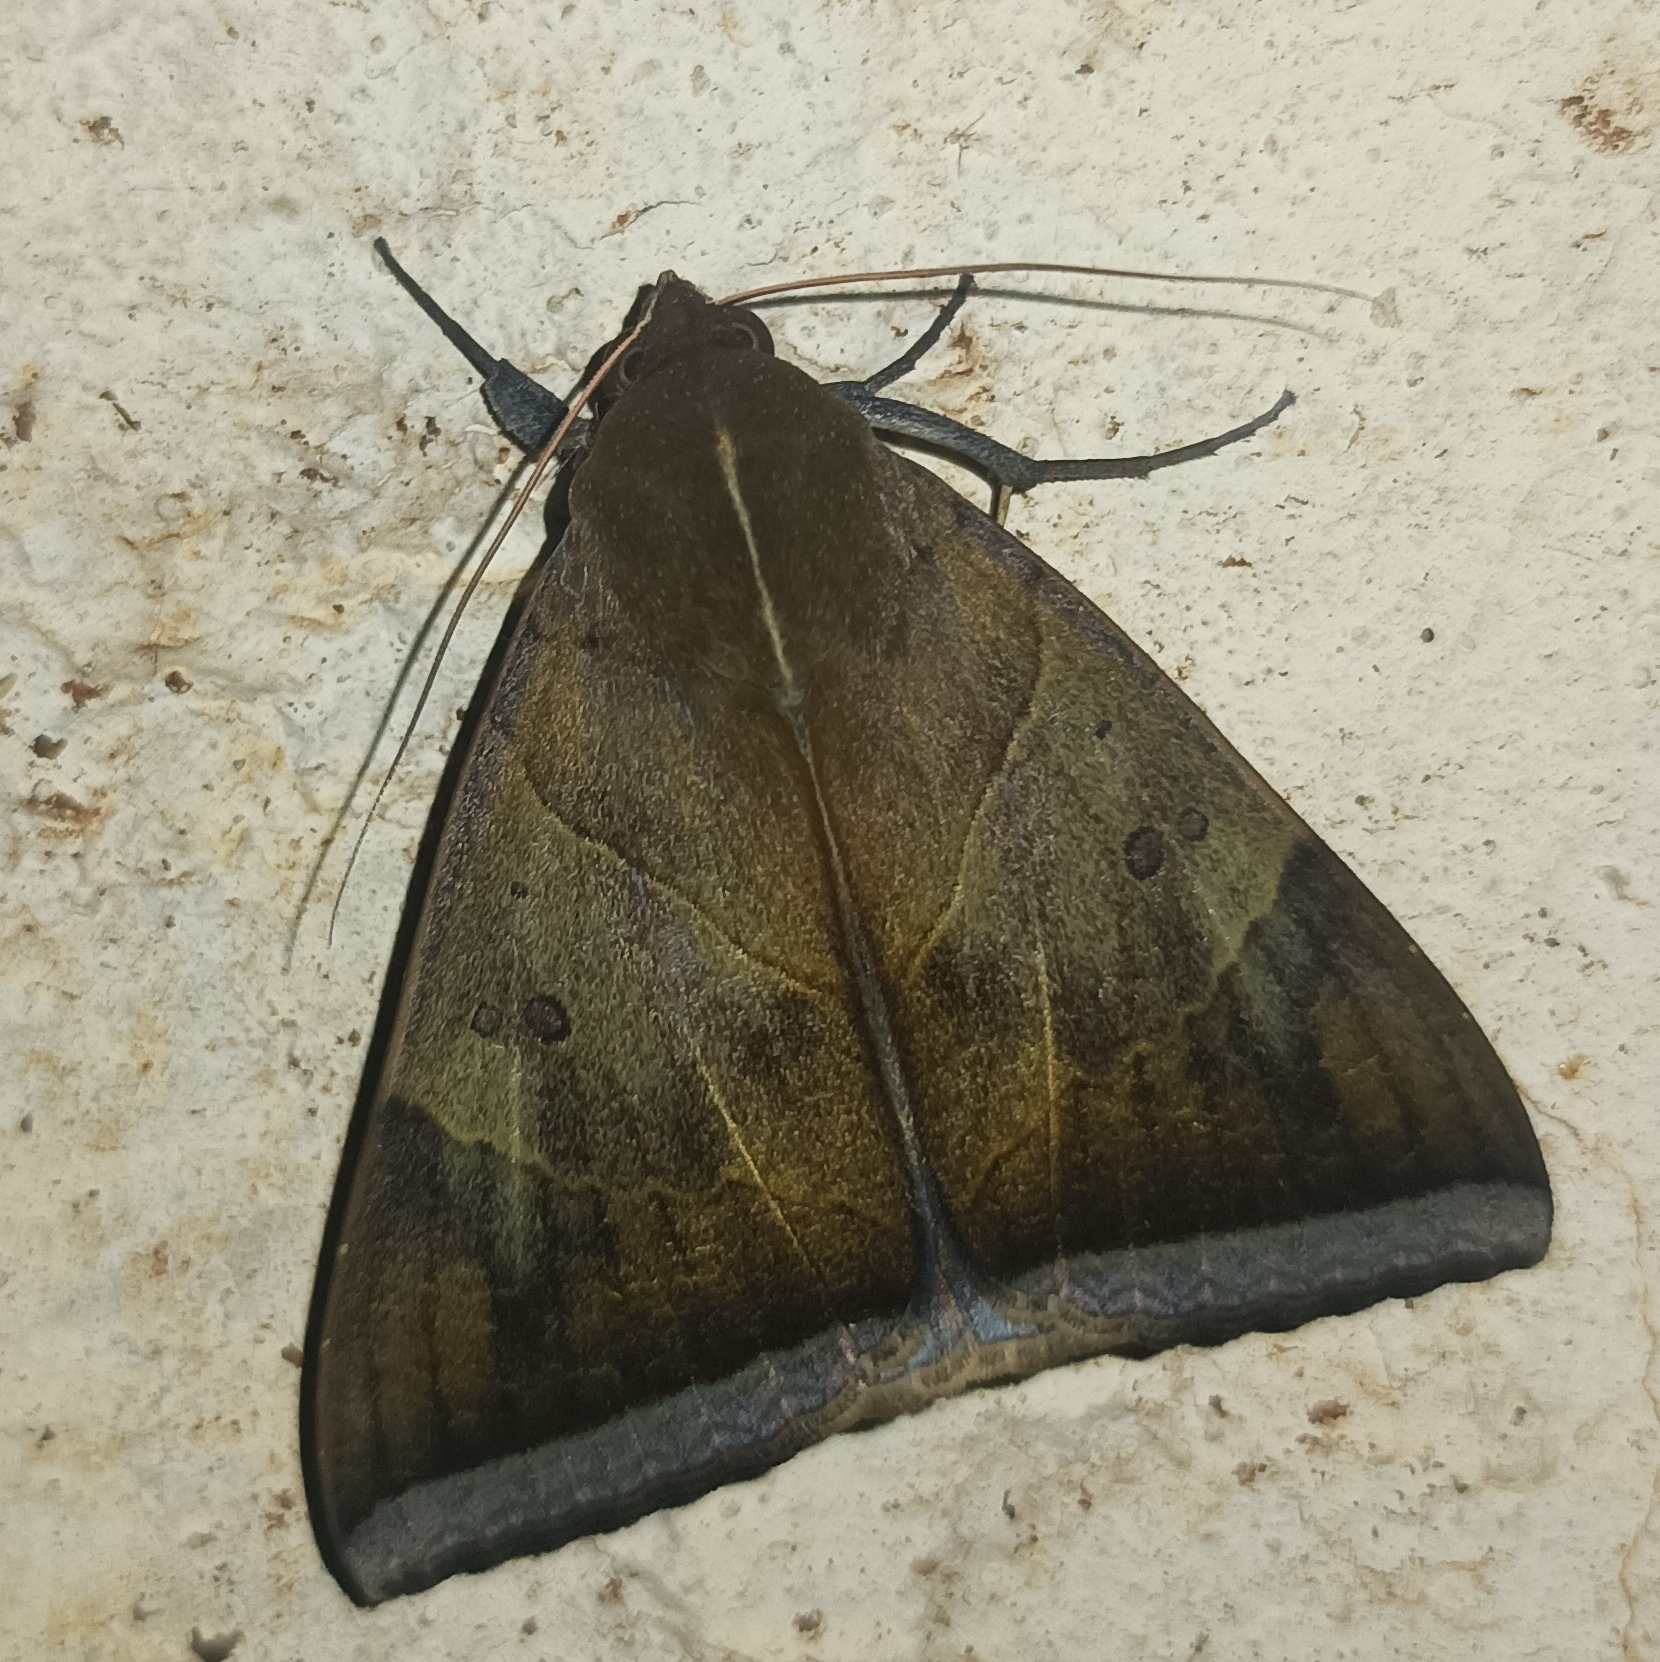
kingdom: Animalia
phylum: Arthropoda
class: Insecta
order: Lepidoptera
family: Erebidae
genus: Artena
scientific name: Artena dotata
